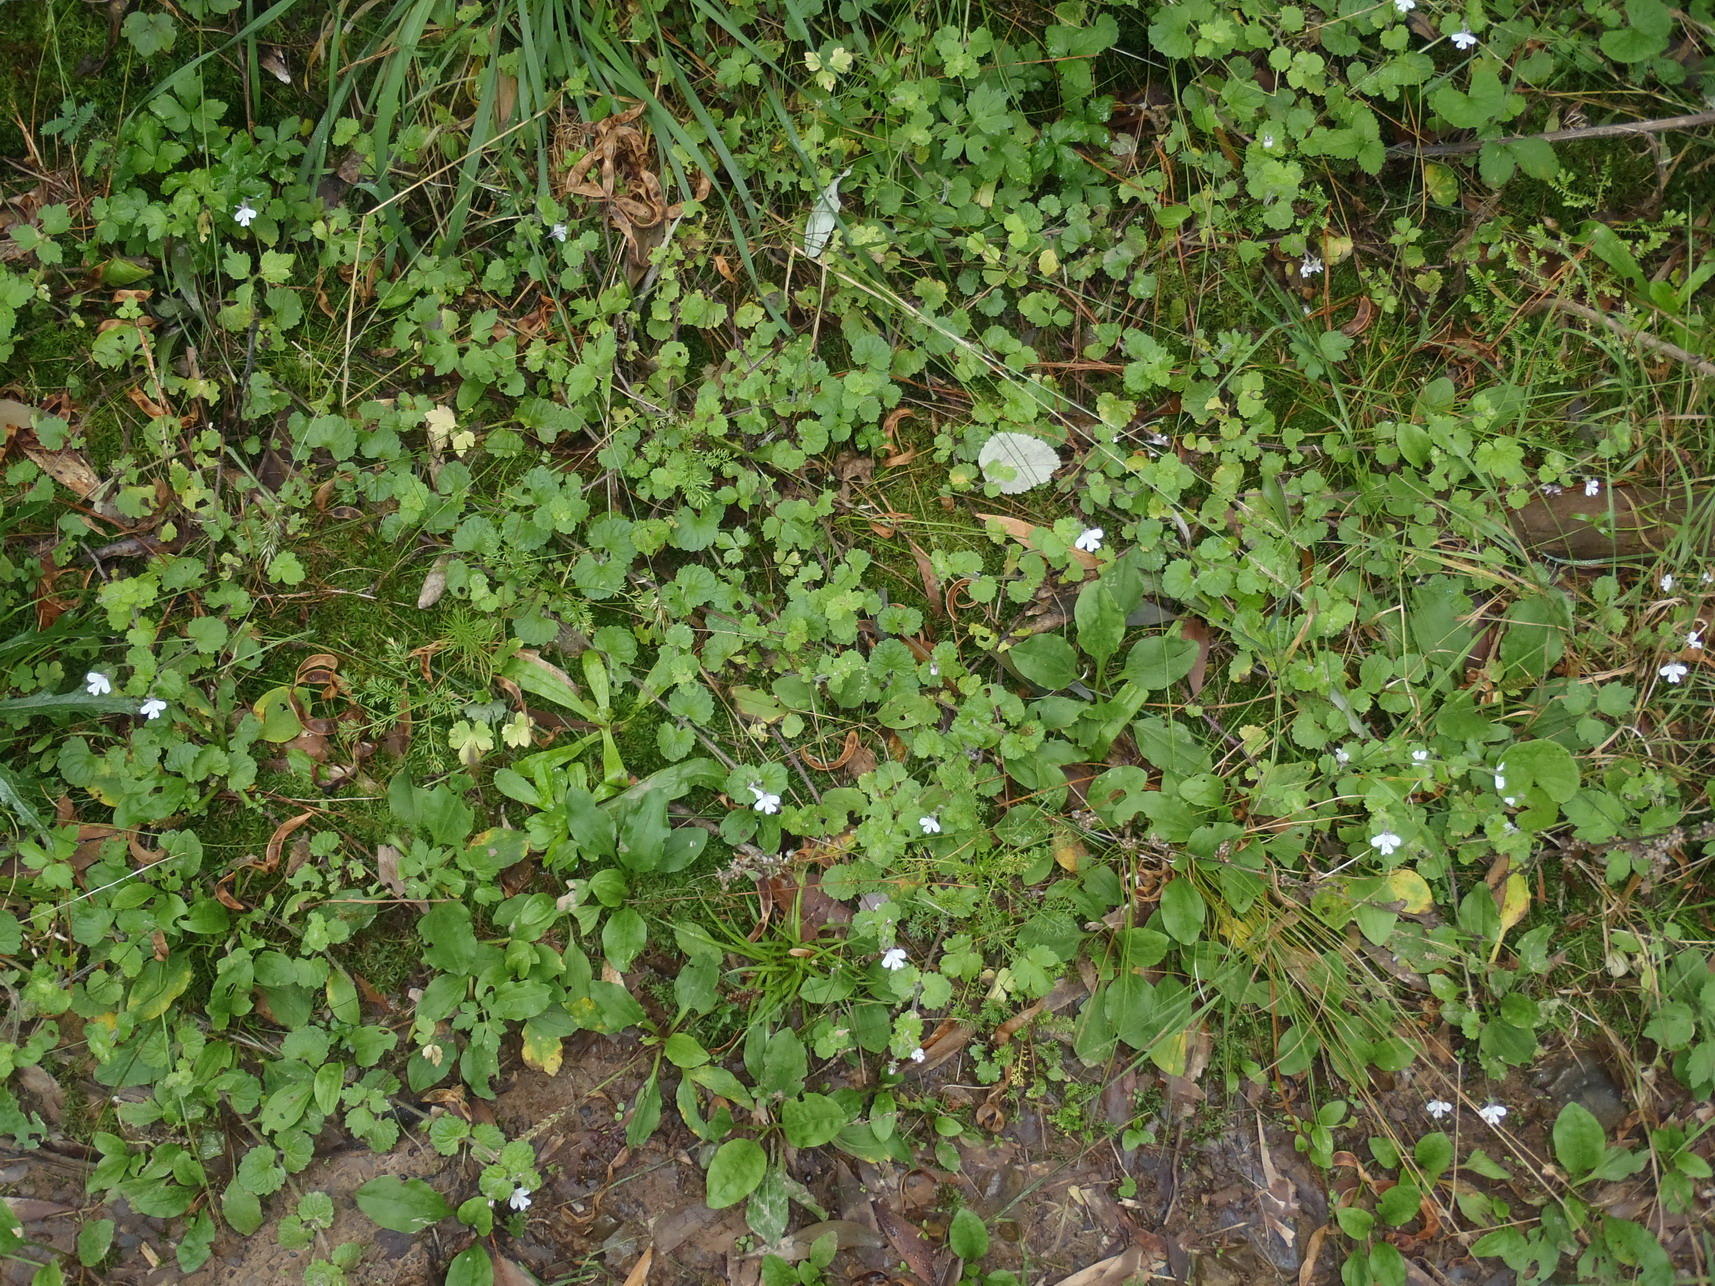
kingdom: Plantae
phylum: Tracheophyta
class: Magnoliopsida
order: Lamiales
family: Scrophulariaceae
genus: Diclis
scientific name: Diclis reptans
